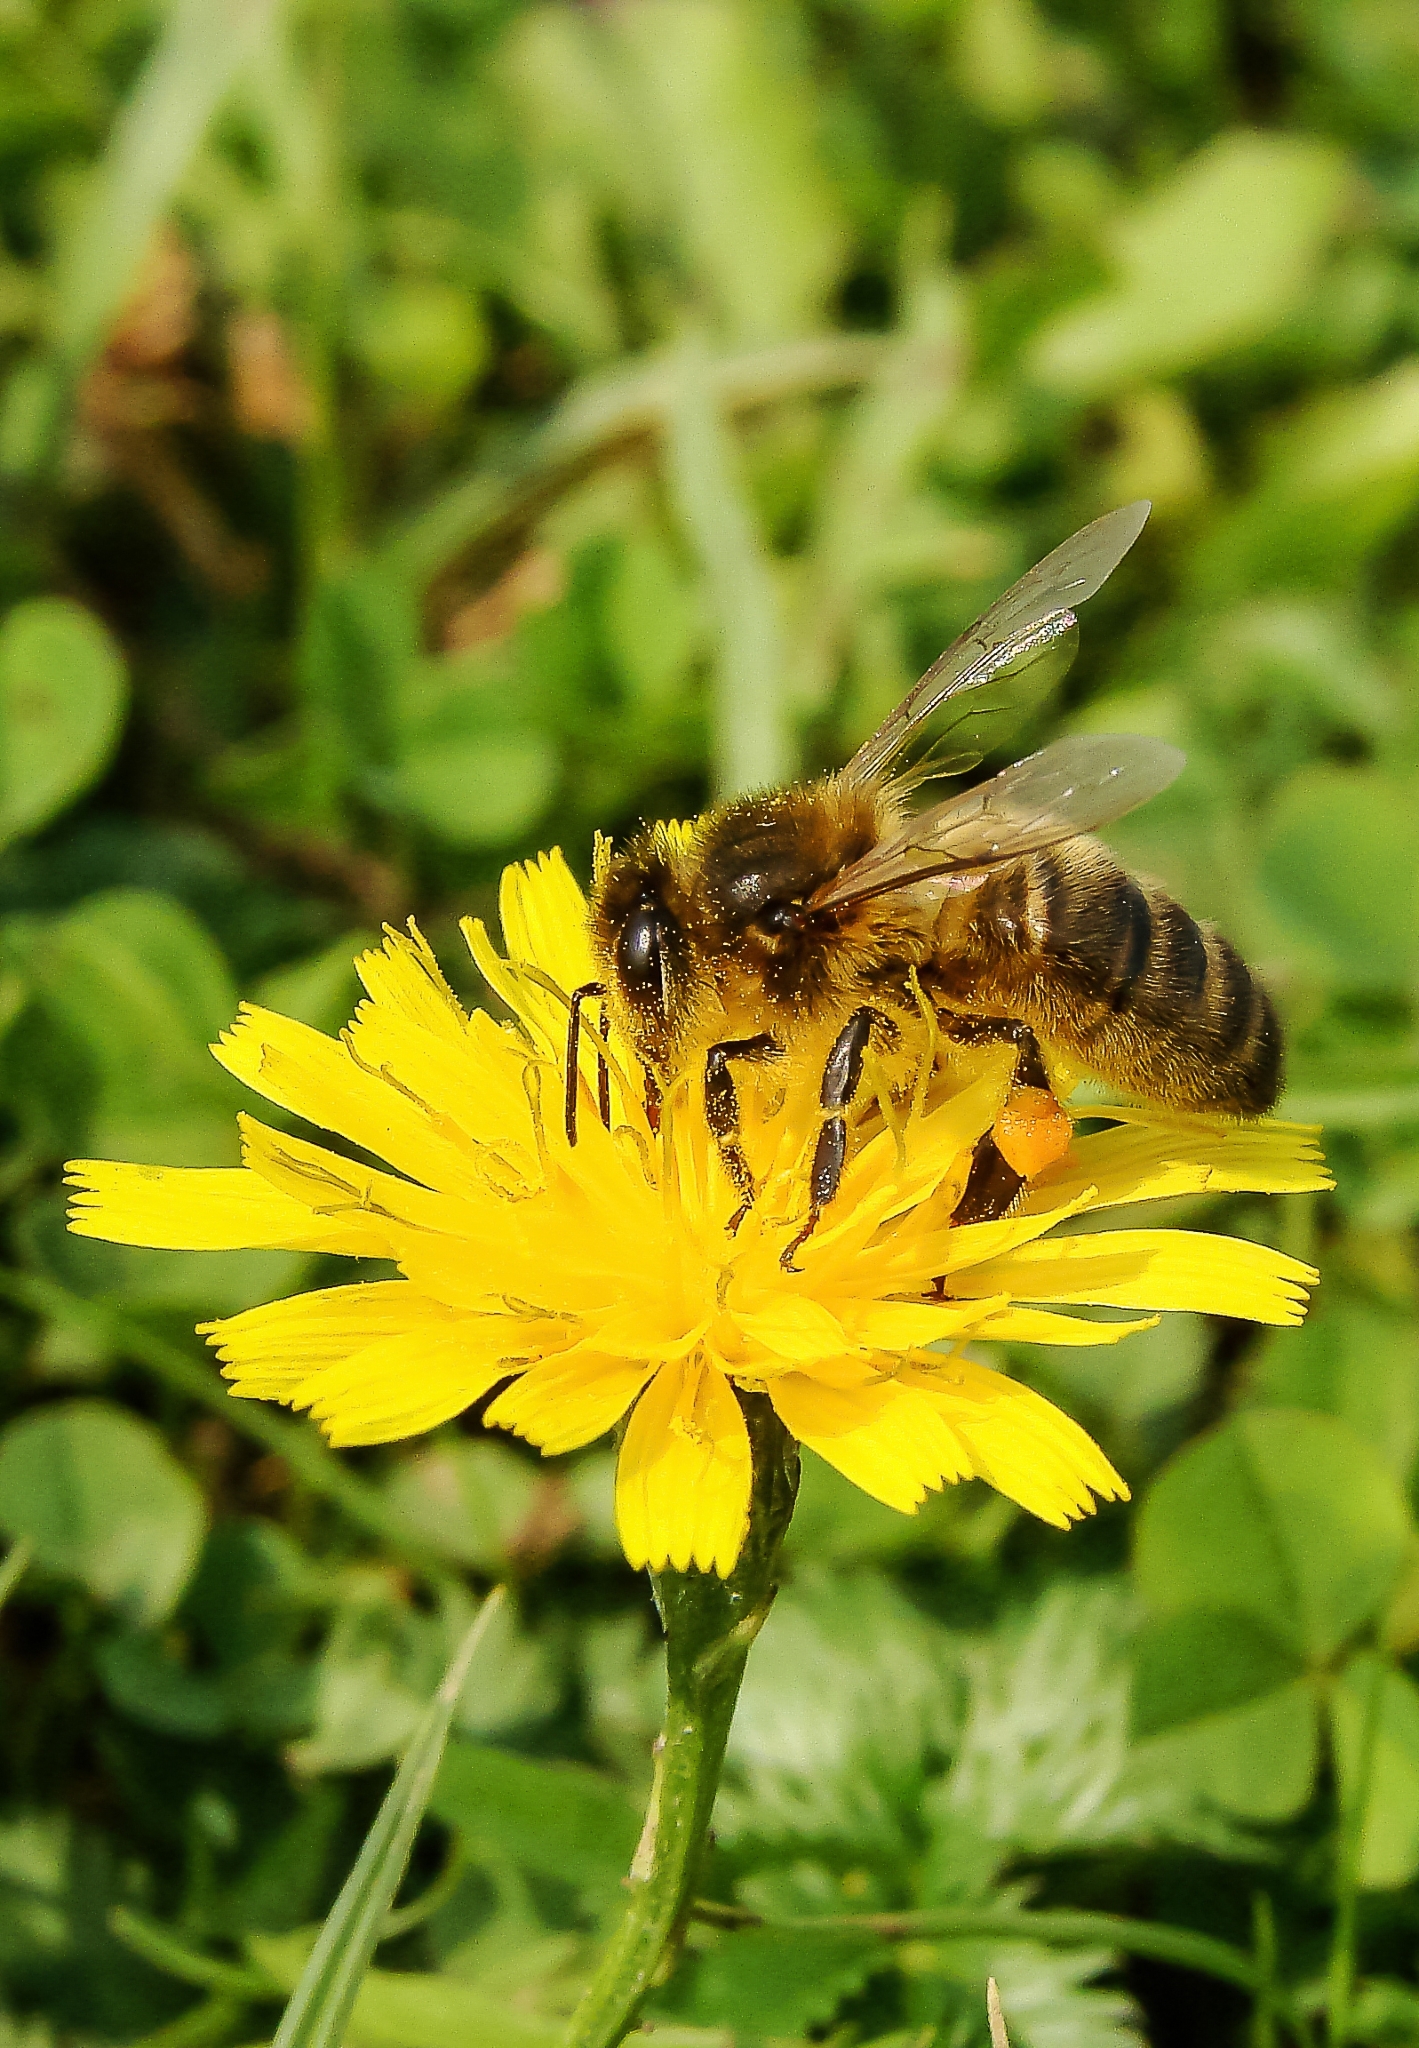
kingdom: Animalia
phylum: Arthropoda
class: Insecta
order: Hymenoptera
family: Apidae
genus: Apis
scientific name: Apis mellifera
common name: Honey bee
